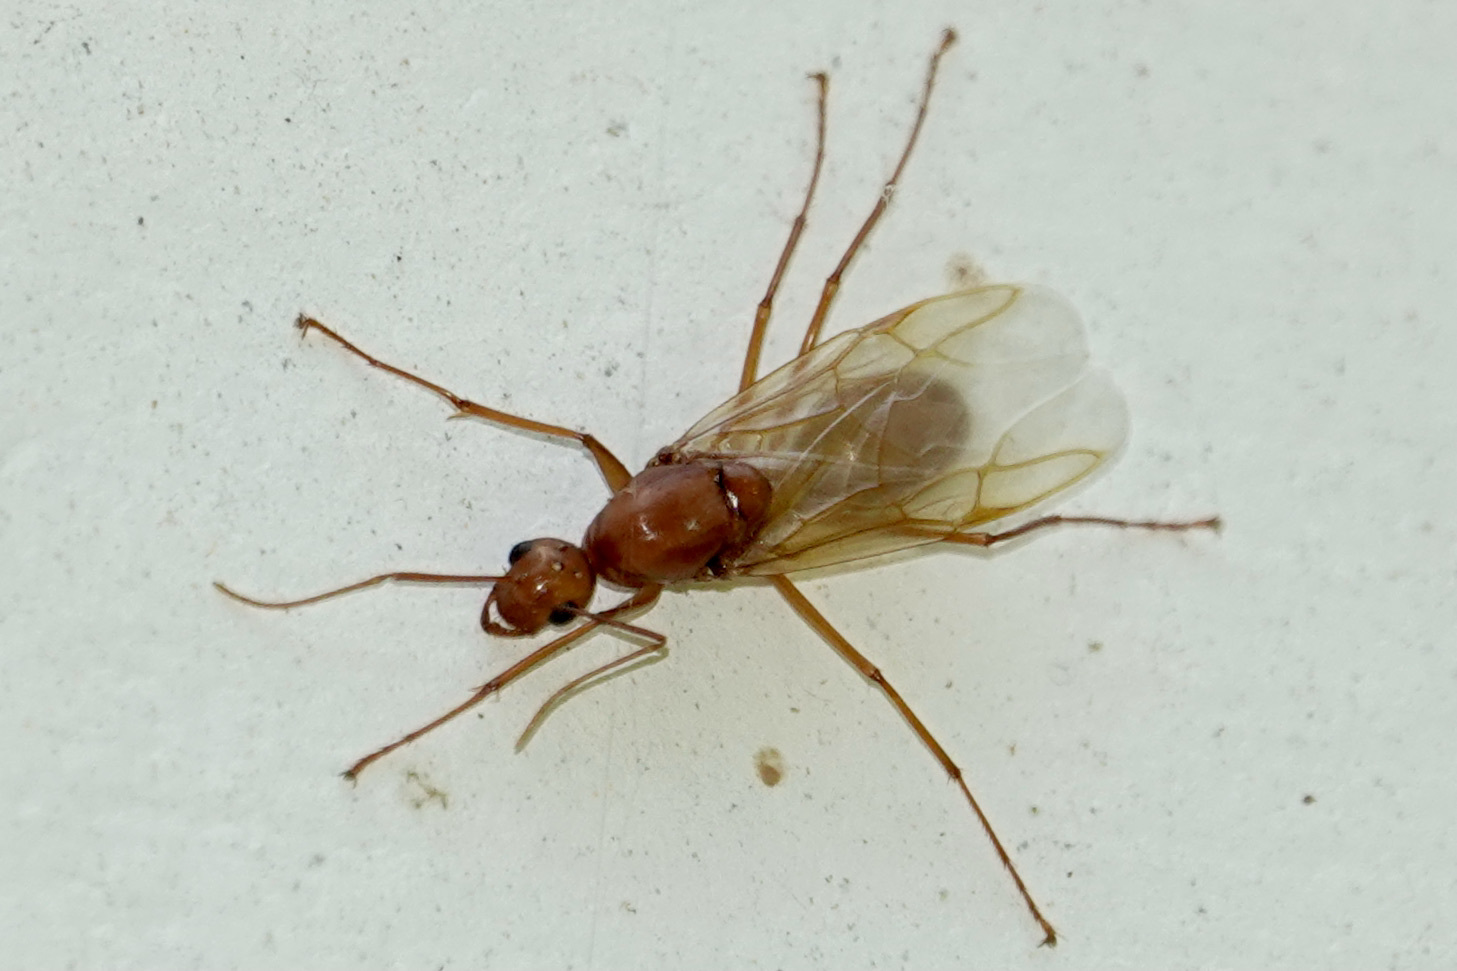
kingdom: Animalia
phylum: Arthropoda
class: Insecta
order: Hymenoptera
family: Formicidae
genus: Camponotus
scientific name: Camponotus castaneus
